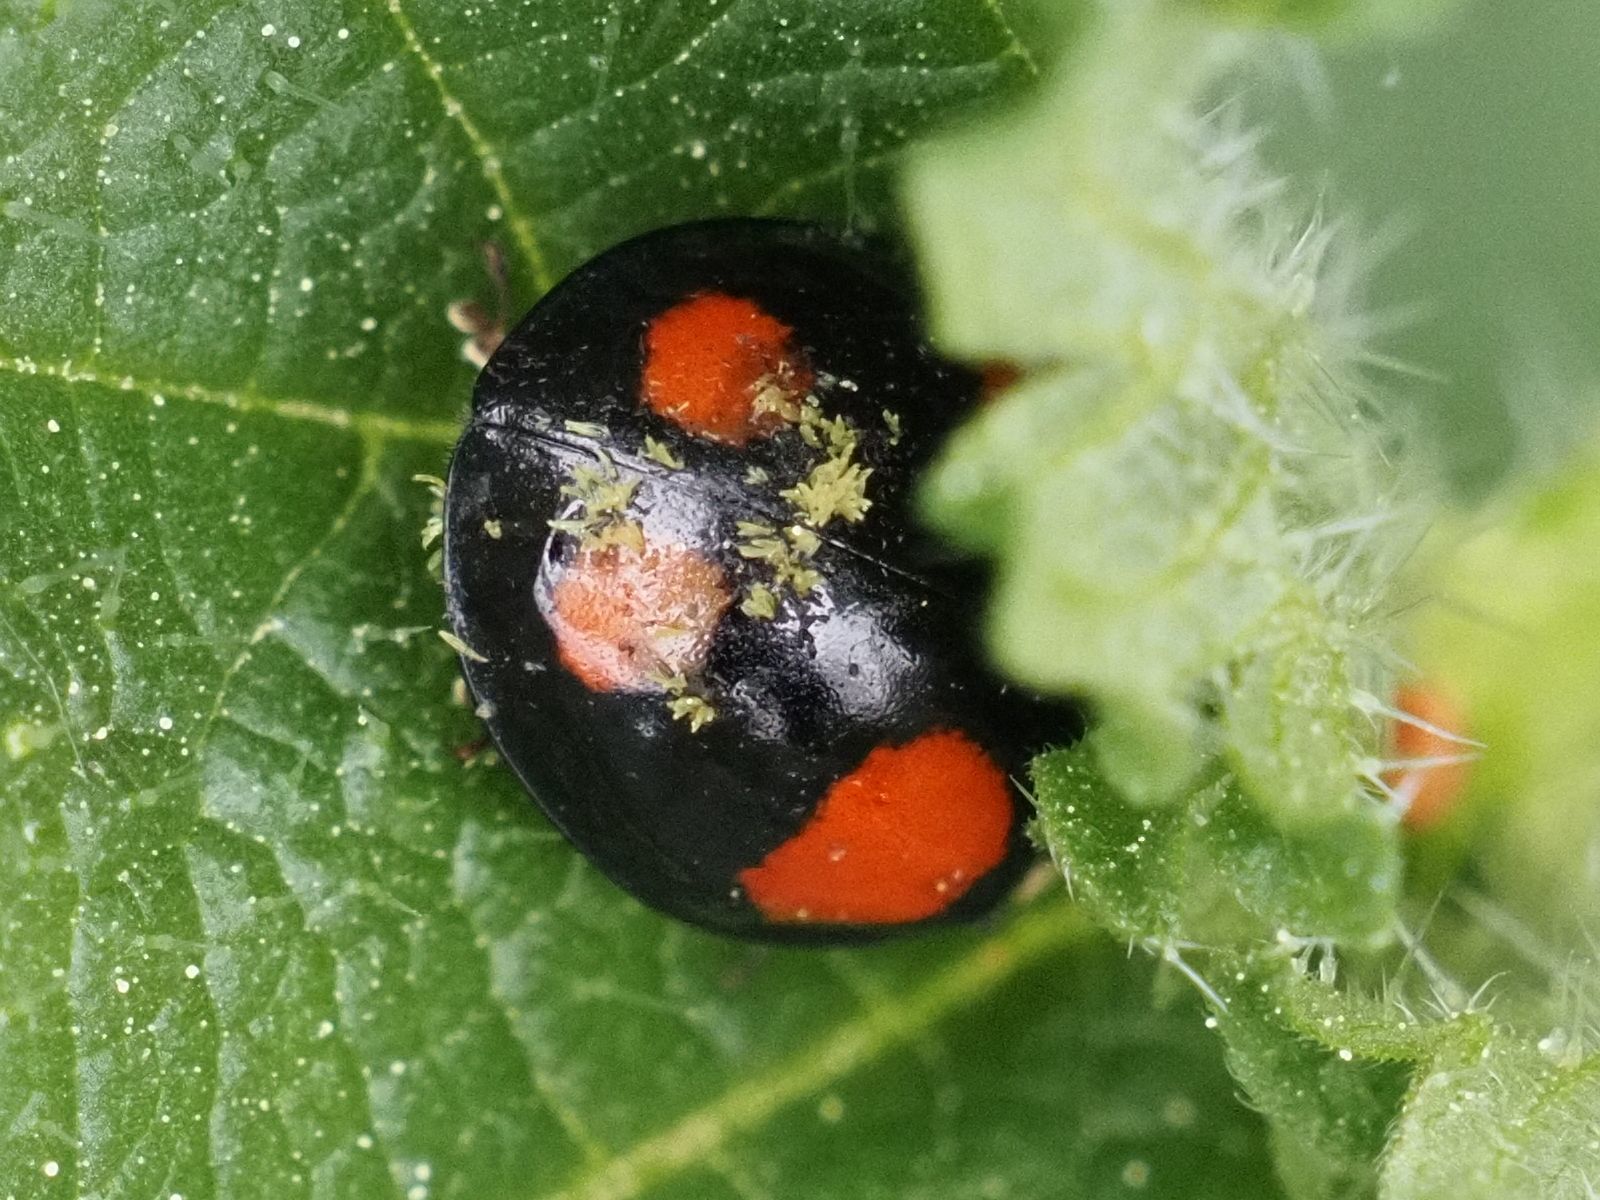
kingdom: Fungi
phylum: Ascomycota
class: Laboulbeniomycetes
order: Laboulbeniales
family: Laboulbeniaceae
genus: Hesperomyces
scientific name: Hesperomyces harmoniae
